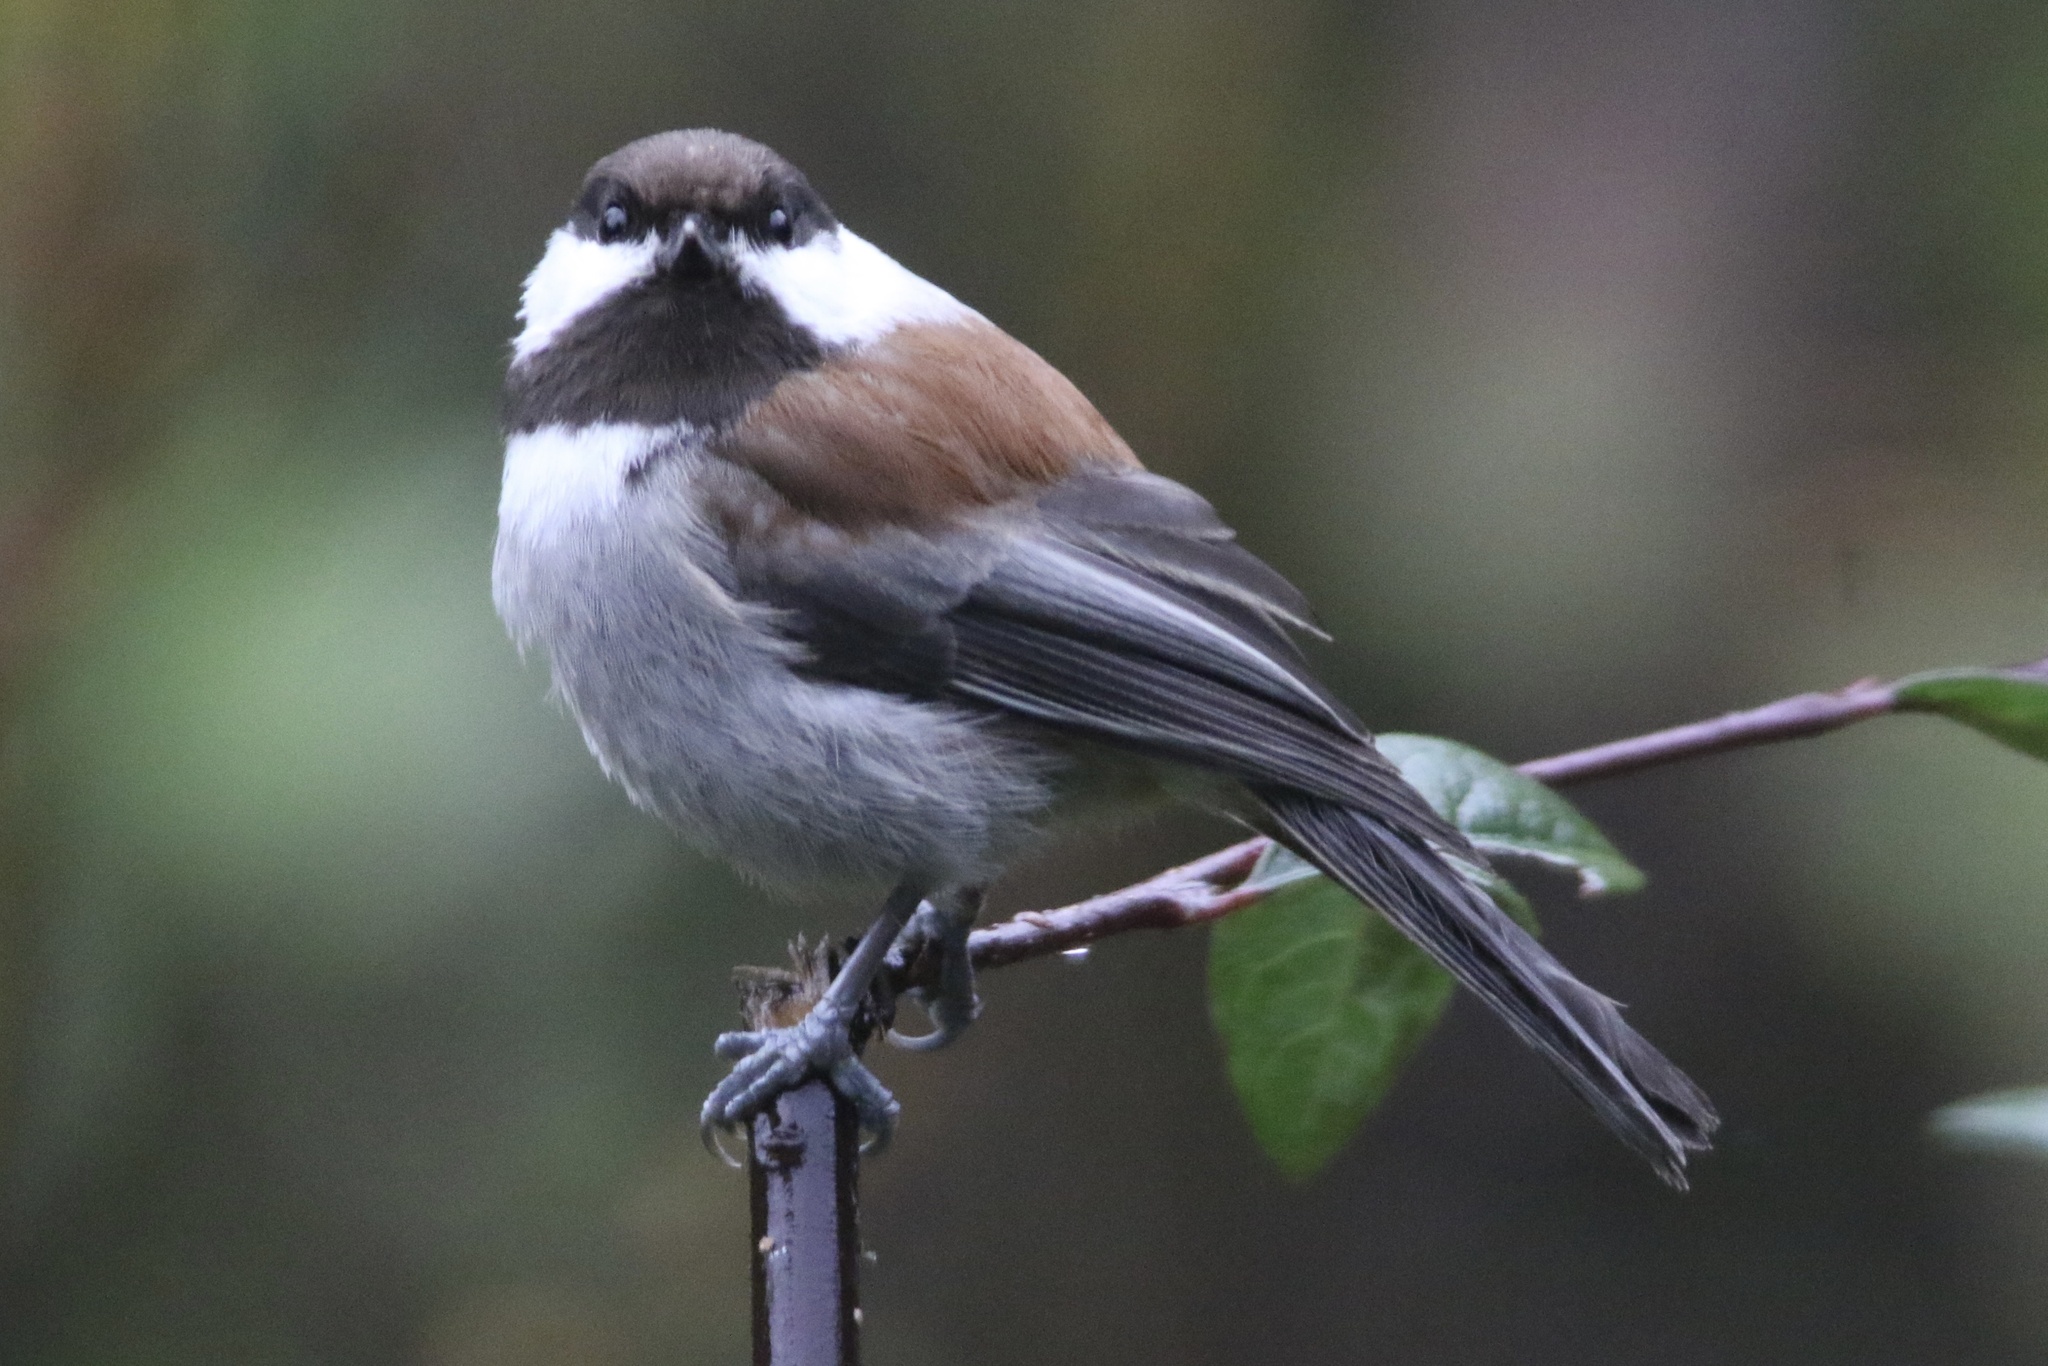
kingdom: Animalia
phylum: Chordata
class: Aves
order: Passeriformes
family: Paridae
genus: Poecile
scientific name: Poecile rufescens
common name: Chestnut-backed chickadee
